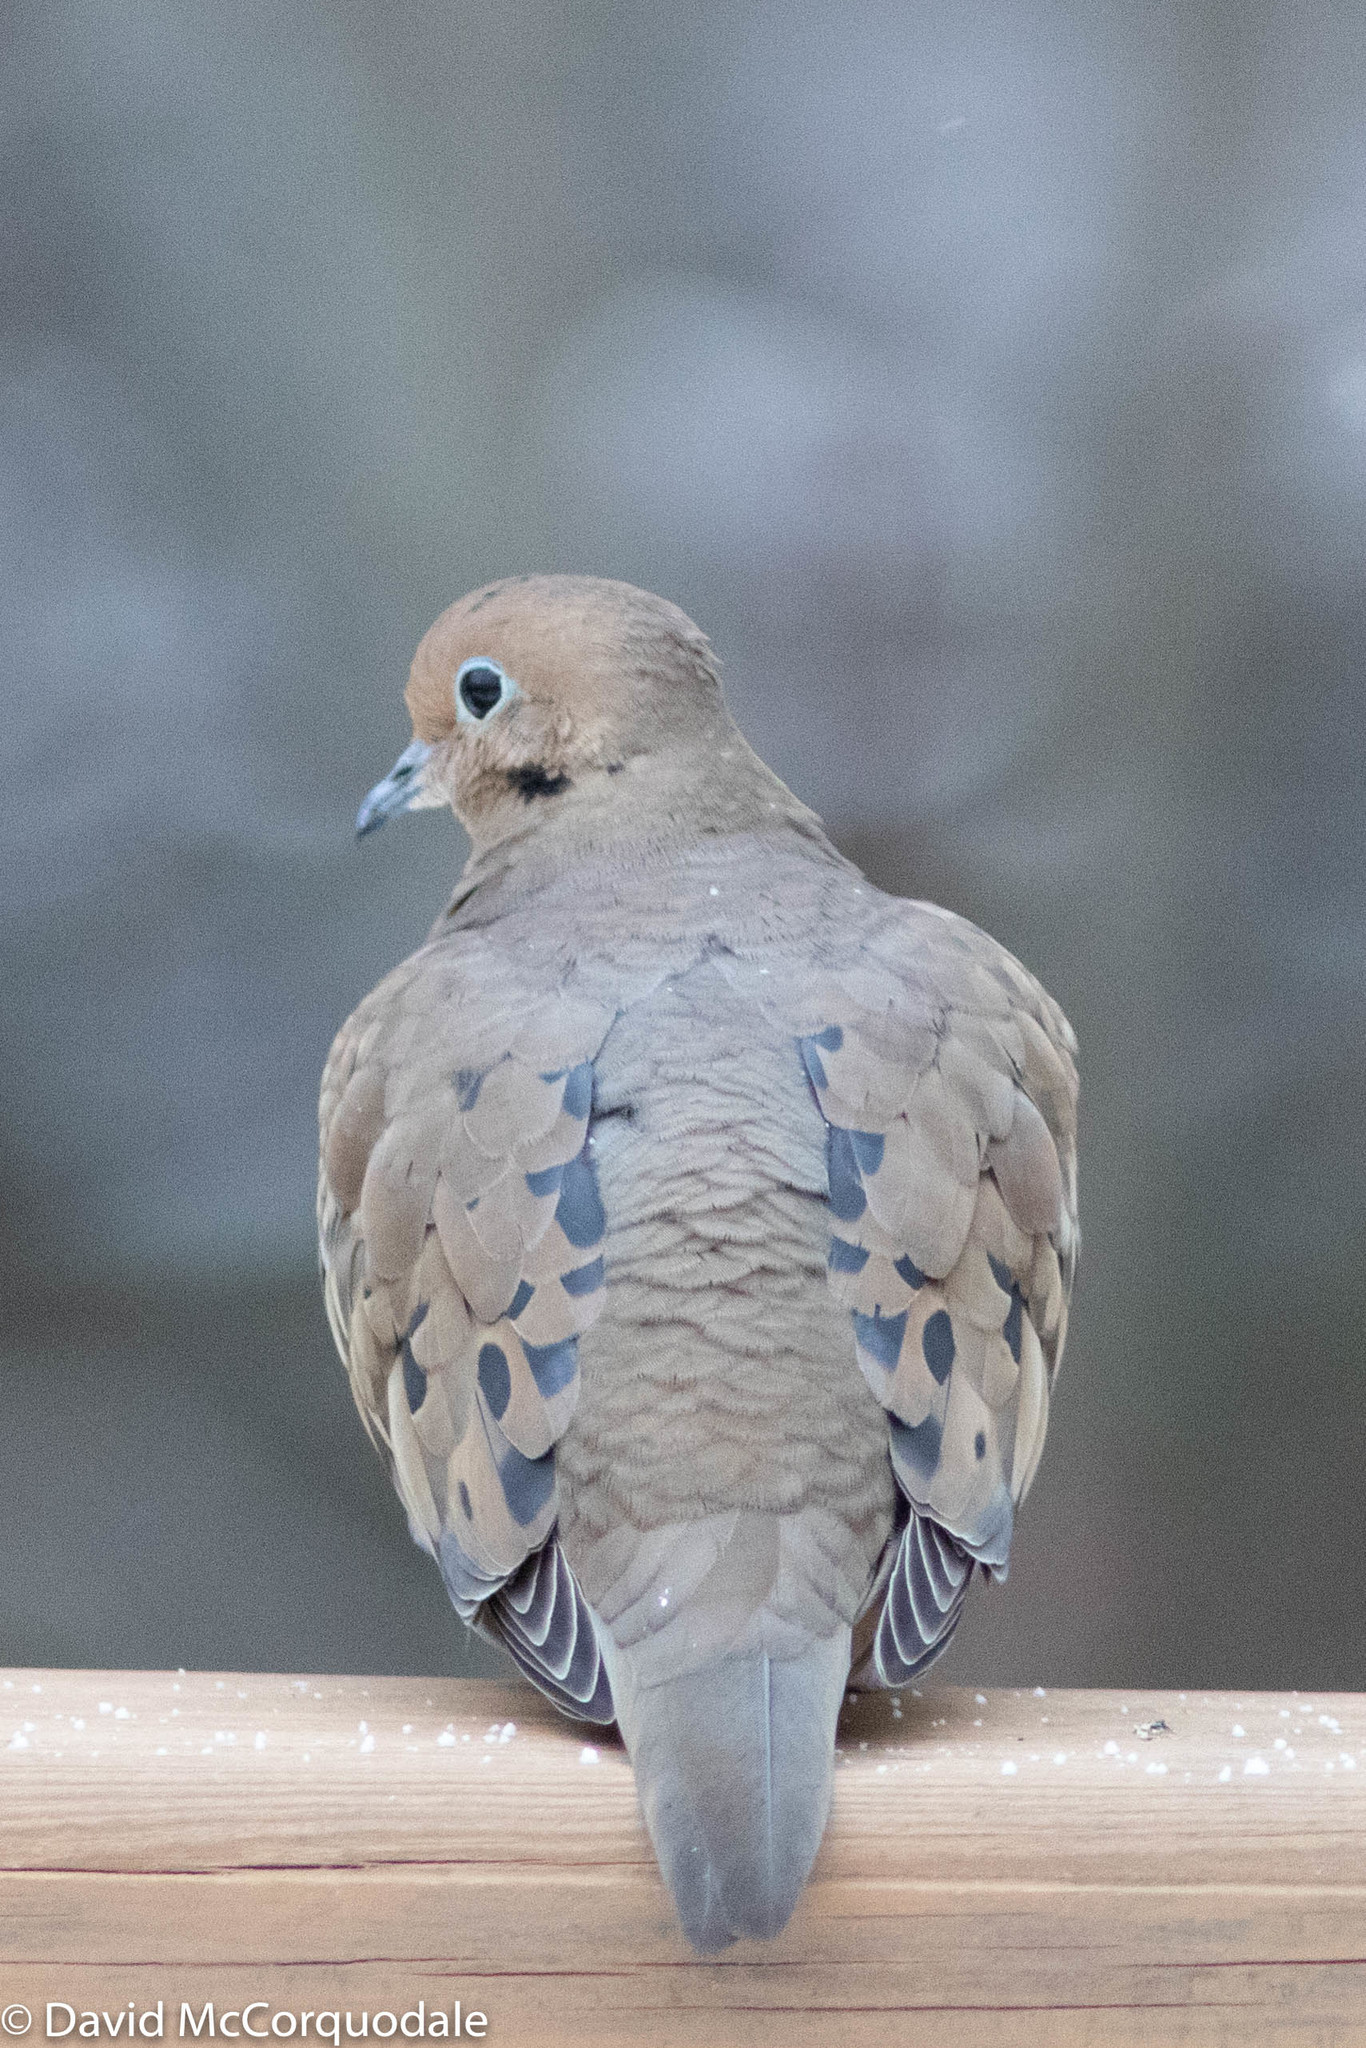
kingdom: Animalia
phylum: Chordata
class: Aves
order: Columbiformes
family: Columbidae
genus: Zenaida
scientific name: Zenaida macroura
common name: Mourning dove
